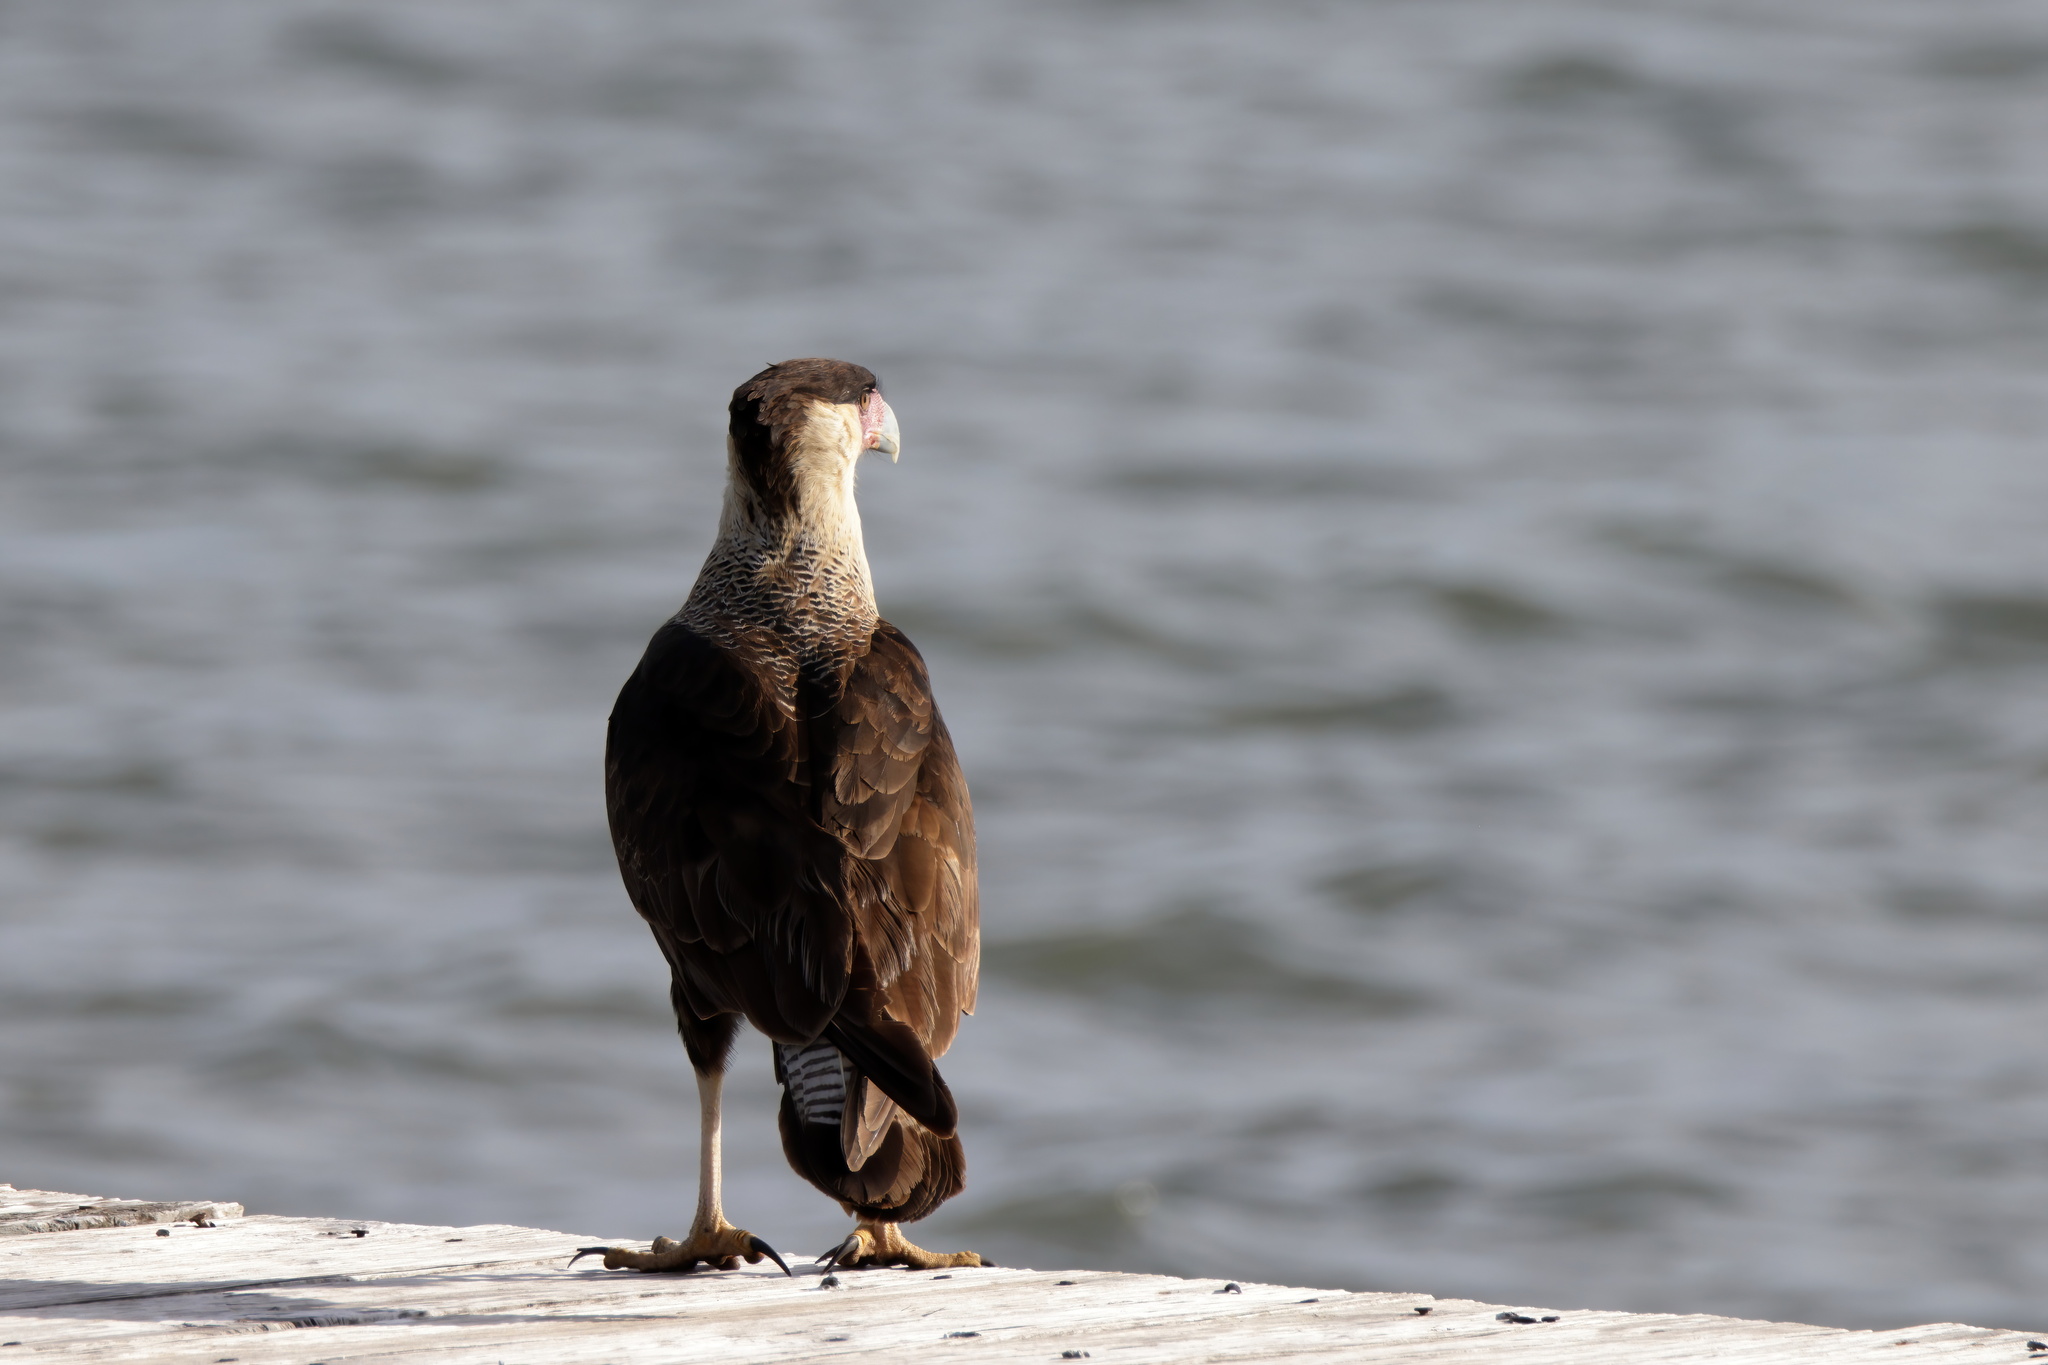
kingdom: Animalia
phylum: Chordata
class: Aves
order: Falconiformes
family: Falconidae
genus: Caracara
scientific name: Caracara plancus
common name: Southern caracara
